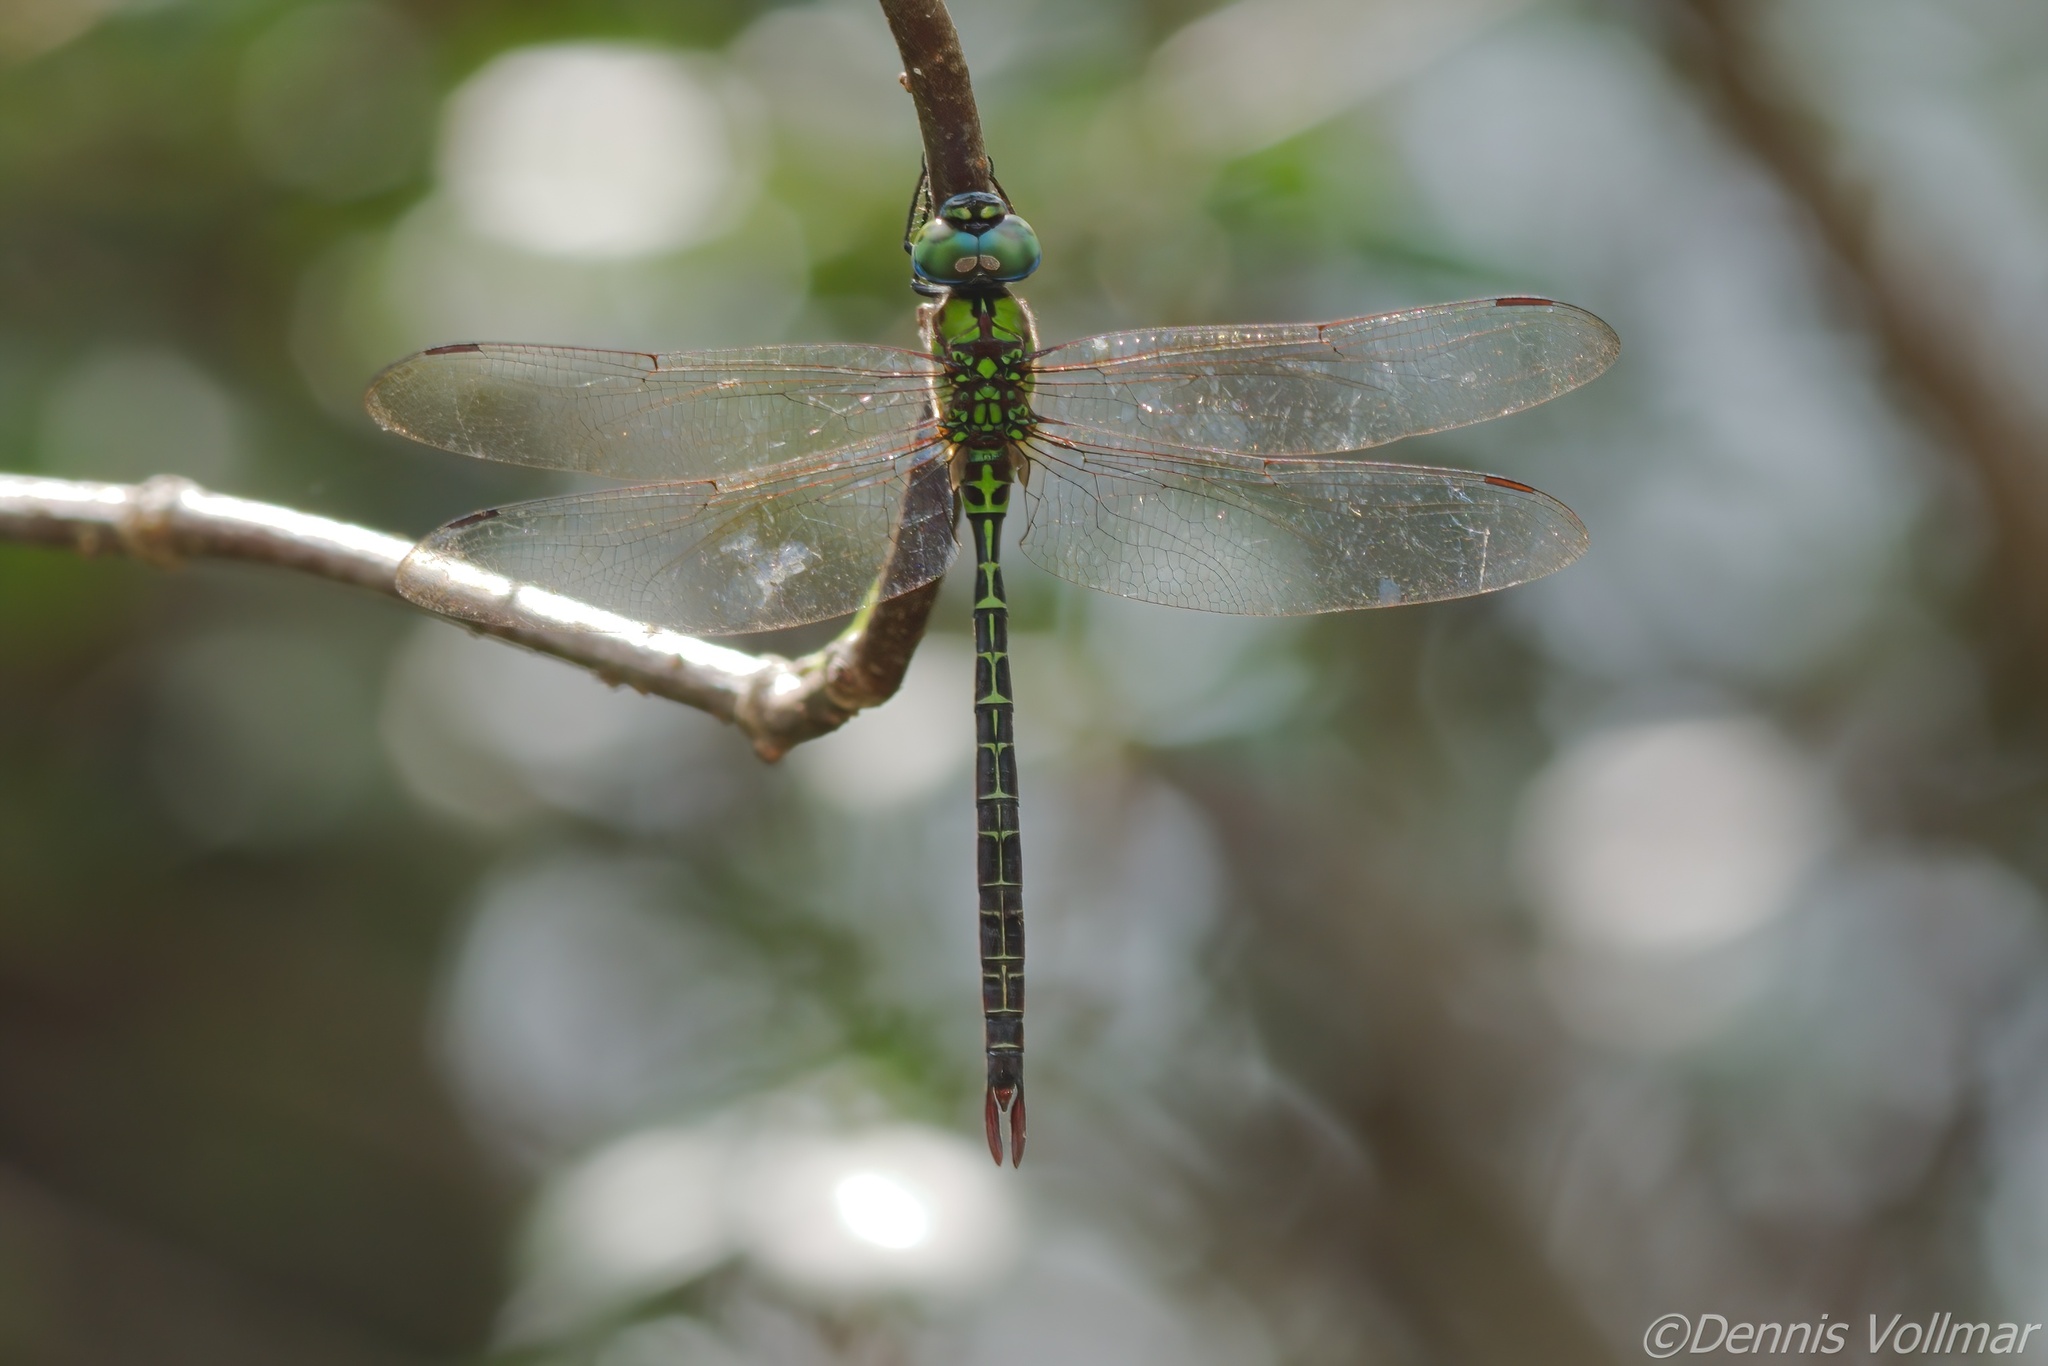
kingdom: Animalia
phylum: Arthropoda
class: Insecta
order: Odonata
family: Aeshnidae
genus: Coryphaeschna
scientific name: Coryphaeschna adnexa
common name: Blue-faced darner
